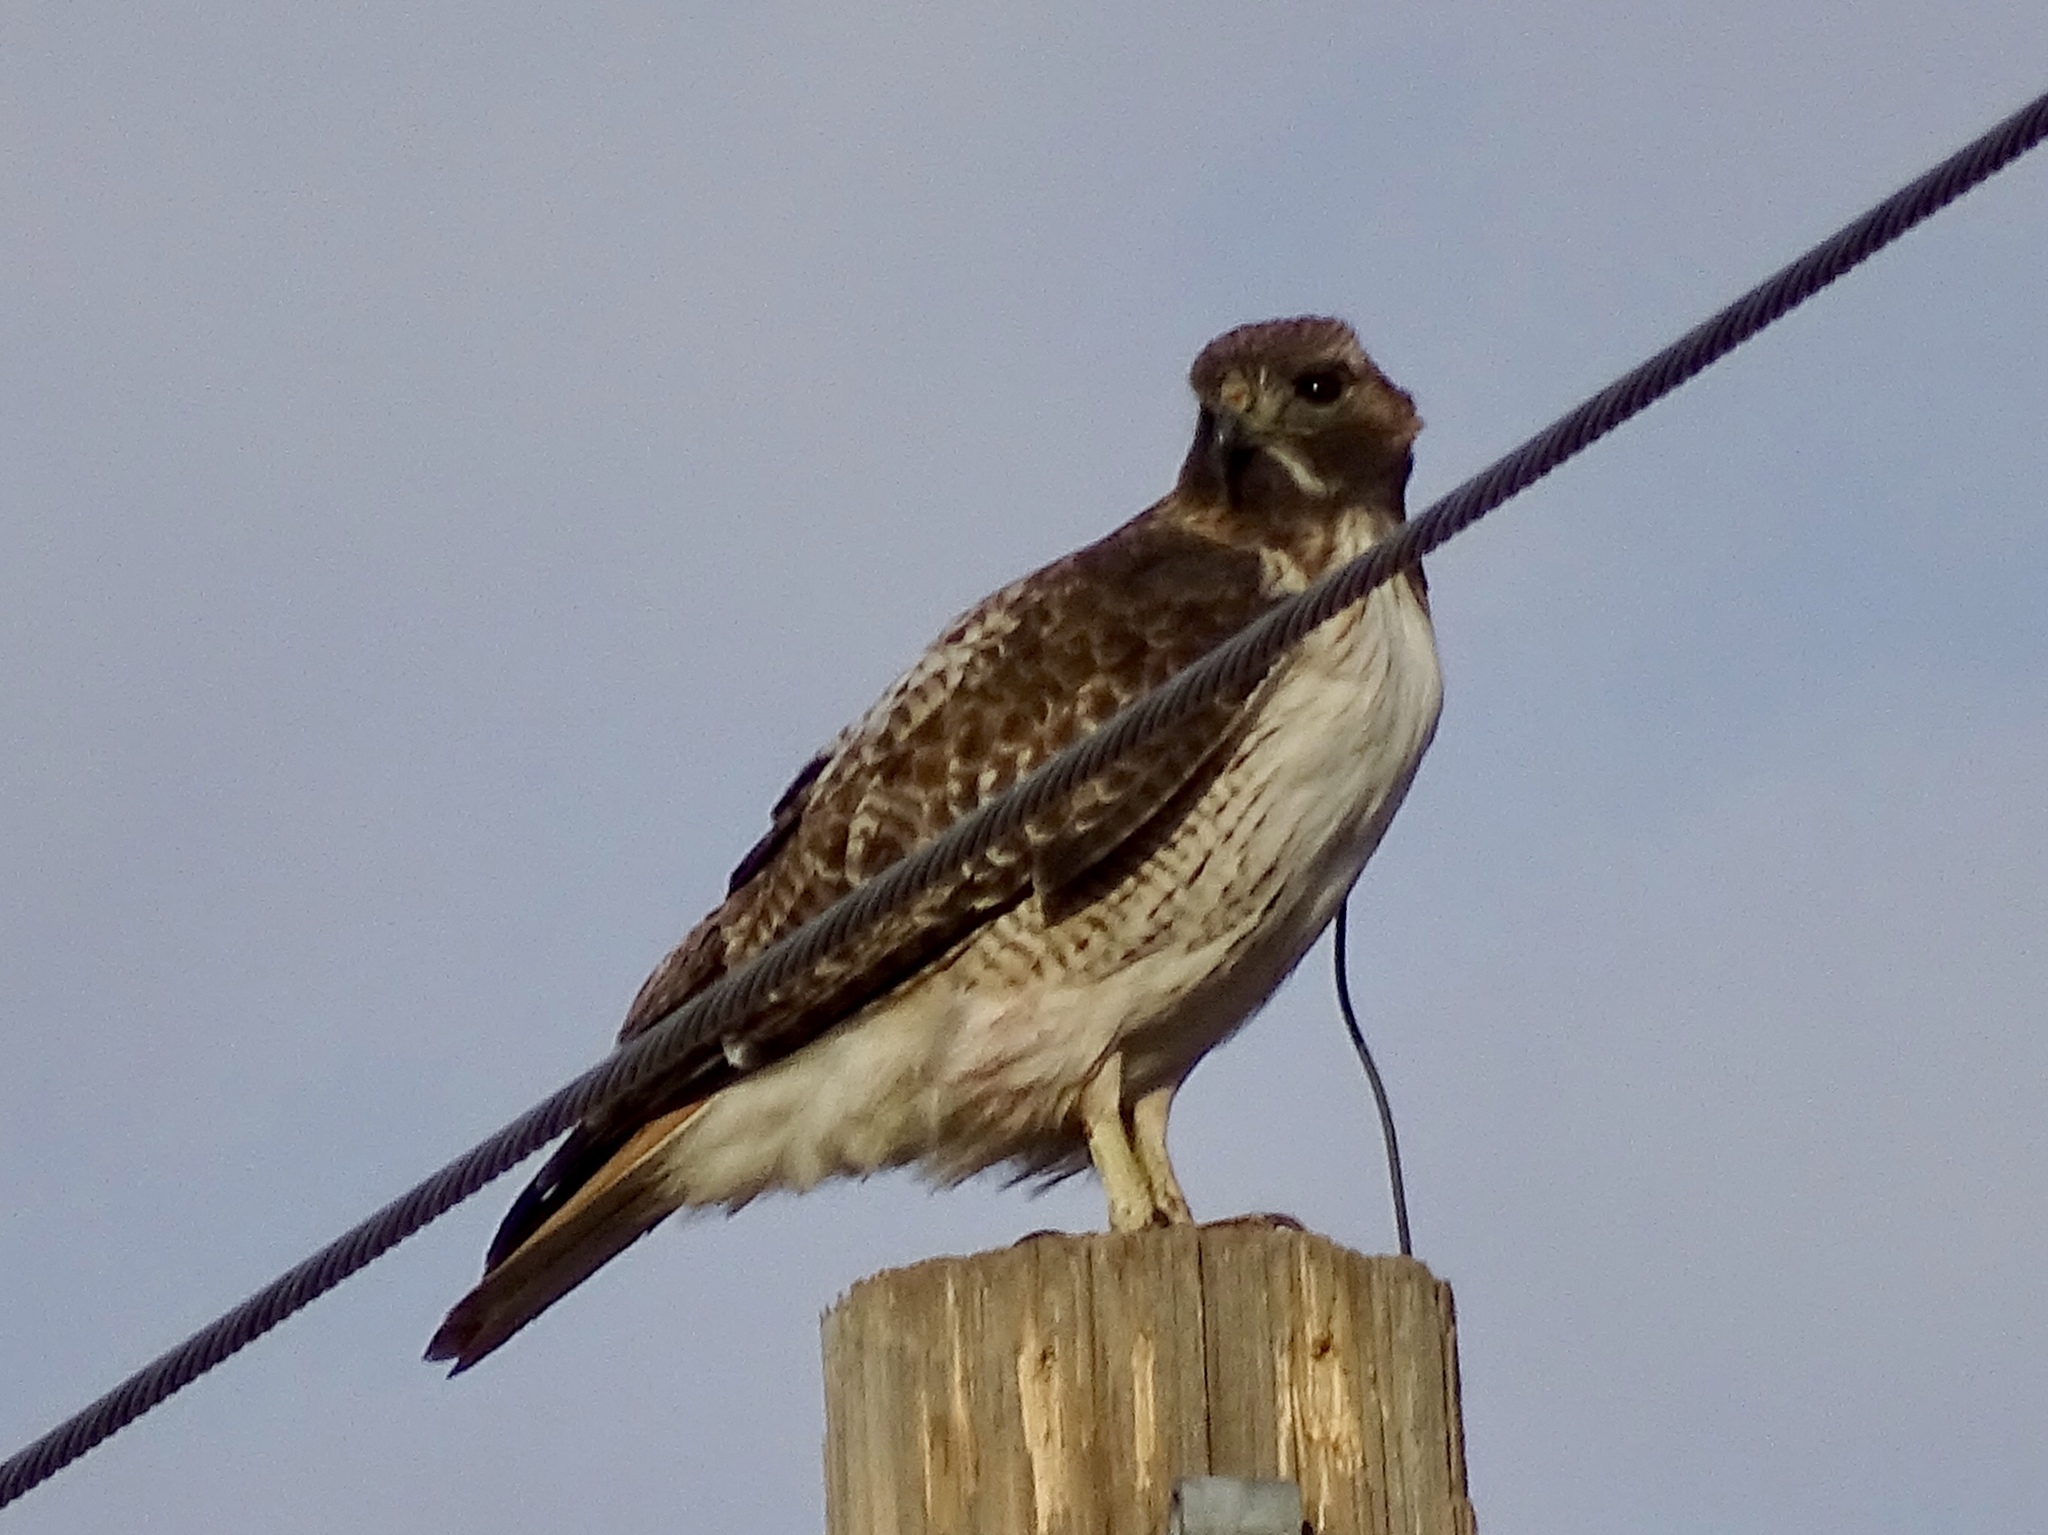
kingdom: Animalia
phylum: Chordata
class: Aves
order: Accipitriformes
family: Accipitridae
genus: Buteo
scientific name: Buteo jamaicensis
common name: Red-tailed hawk
